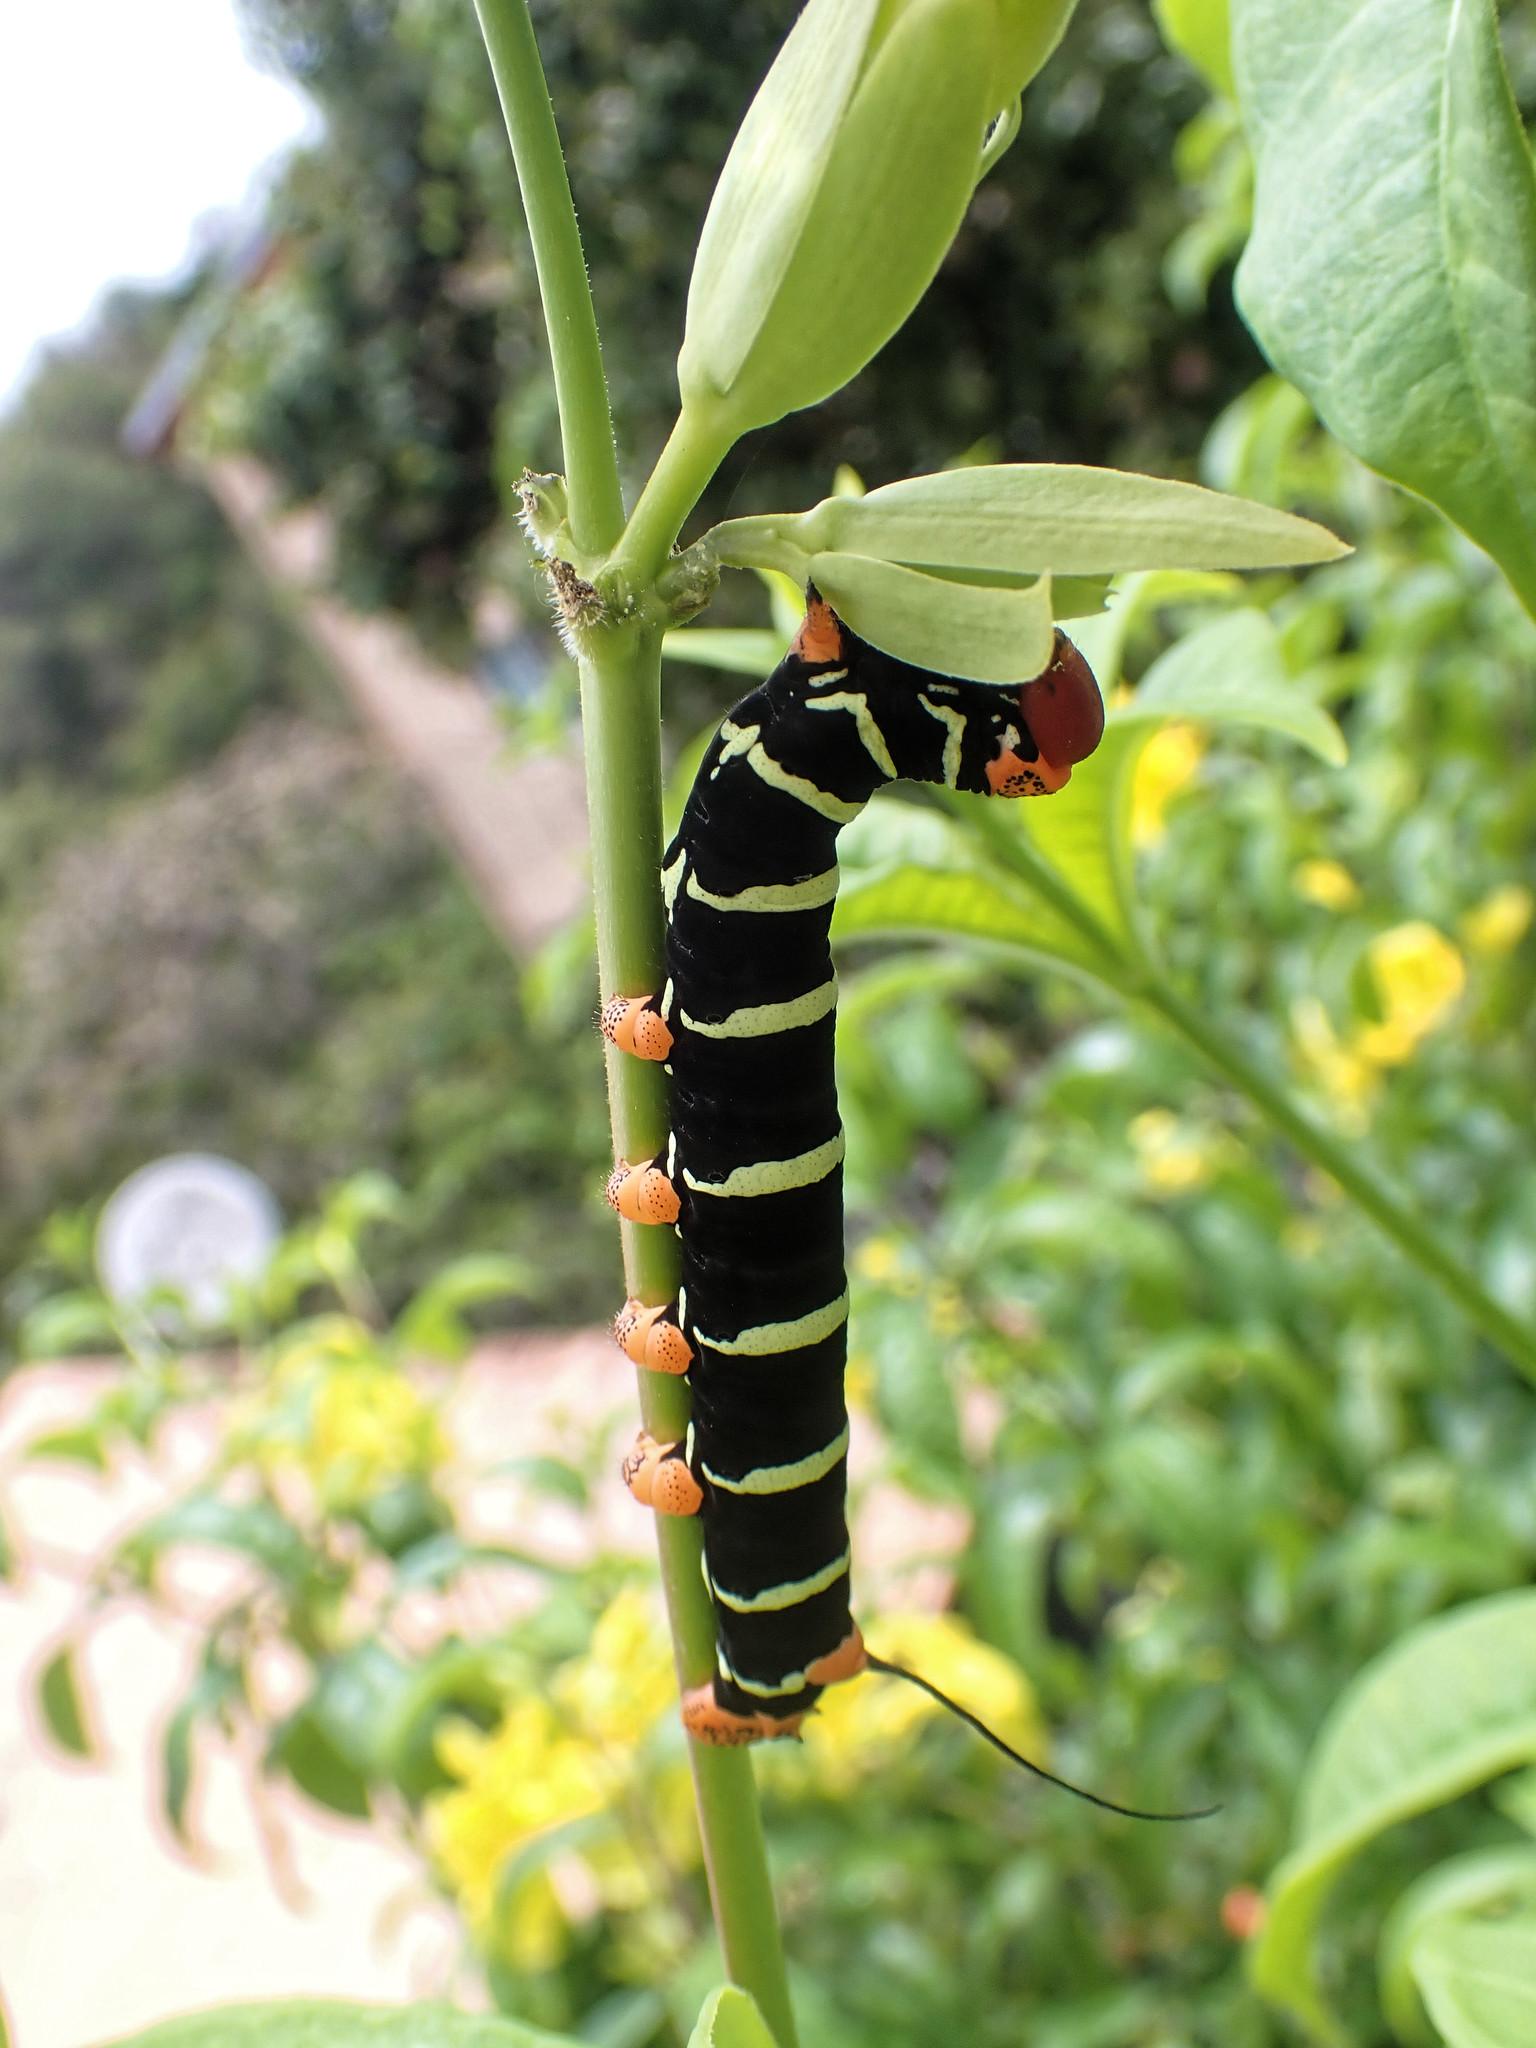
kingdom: Animalia
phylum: Arthropoda
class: Insecta
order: Lepidoptera
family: Sphingidae
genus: Pseudosphinx
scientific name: Pseudosphinx tetrio
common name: Tetrio sphinx
